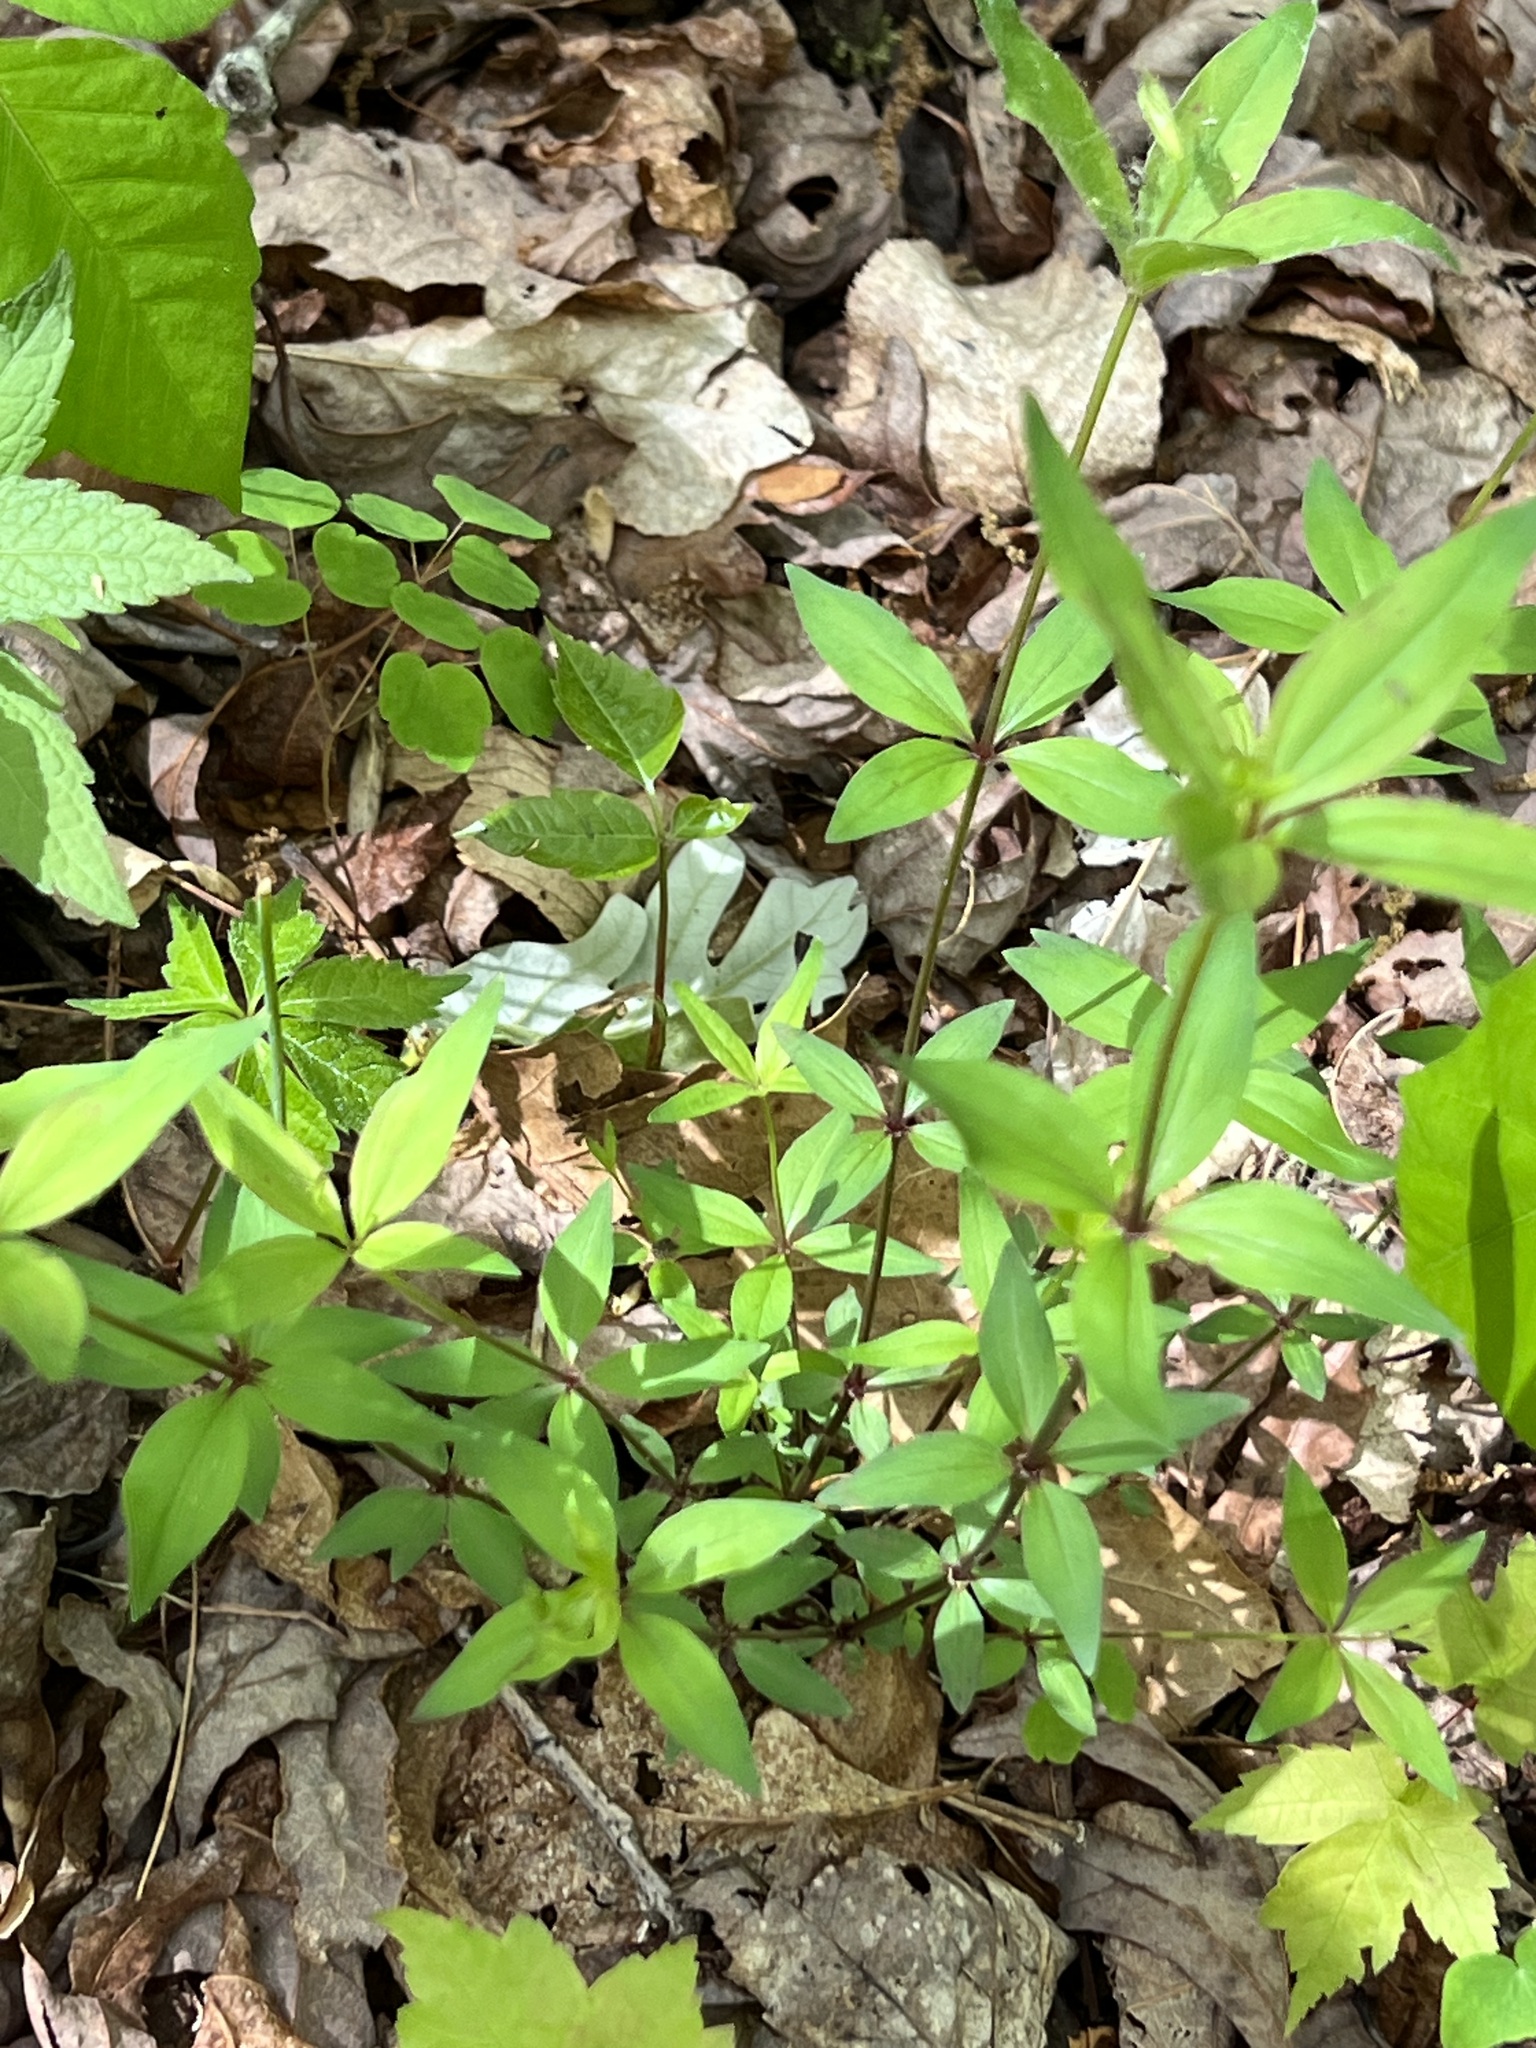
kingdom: Plantae
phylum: Tracheophyta
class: Magnoliopsida
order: Gentianales
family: Rubiaceae
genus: Galium
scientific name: Galium circaezans
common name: Forest bedstraw
